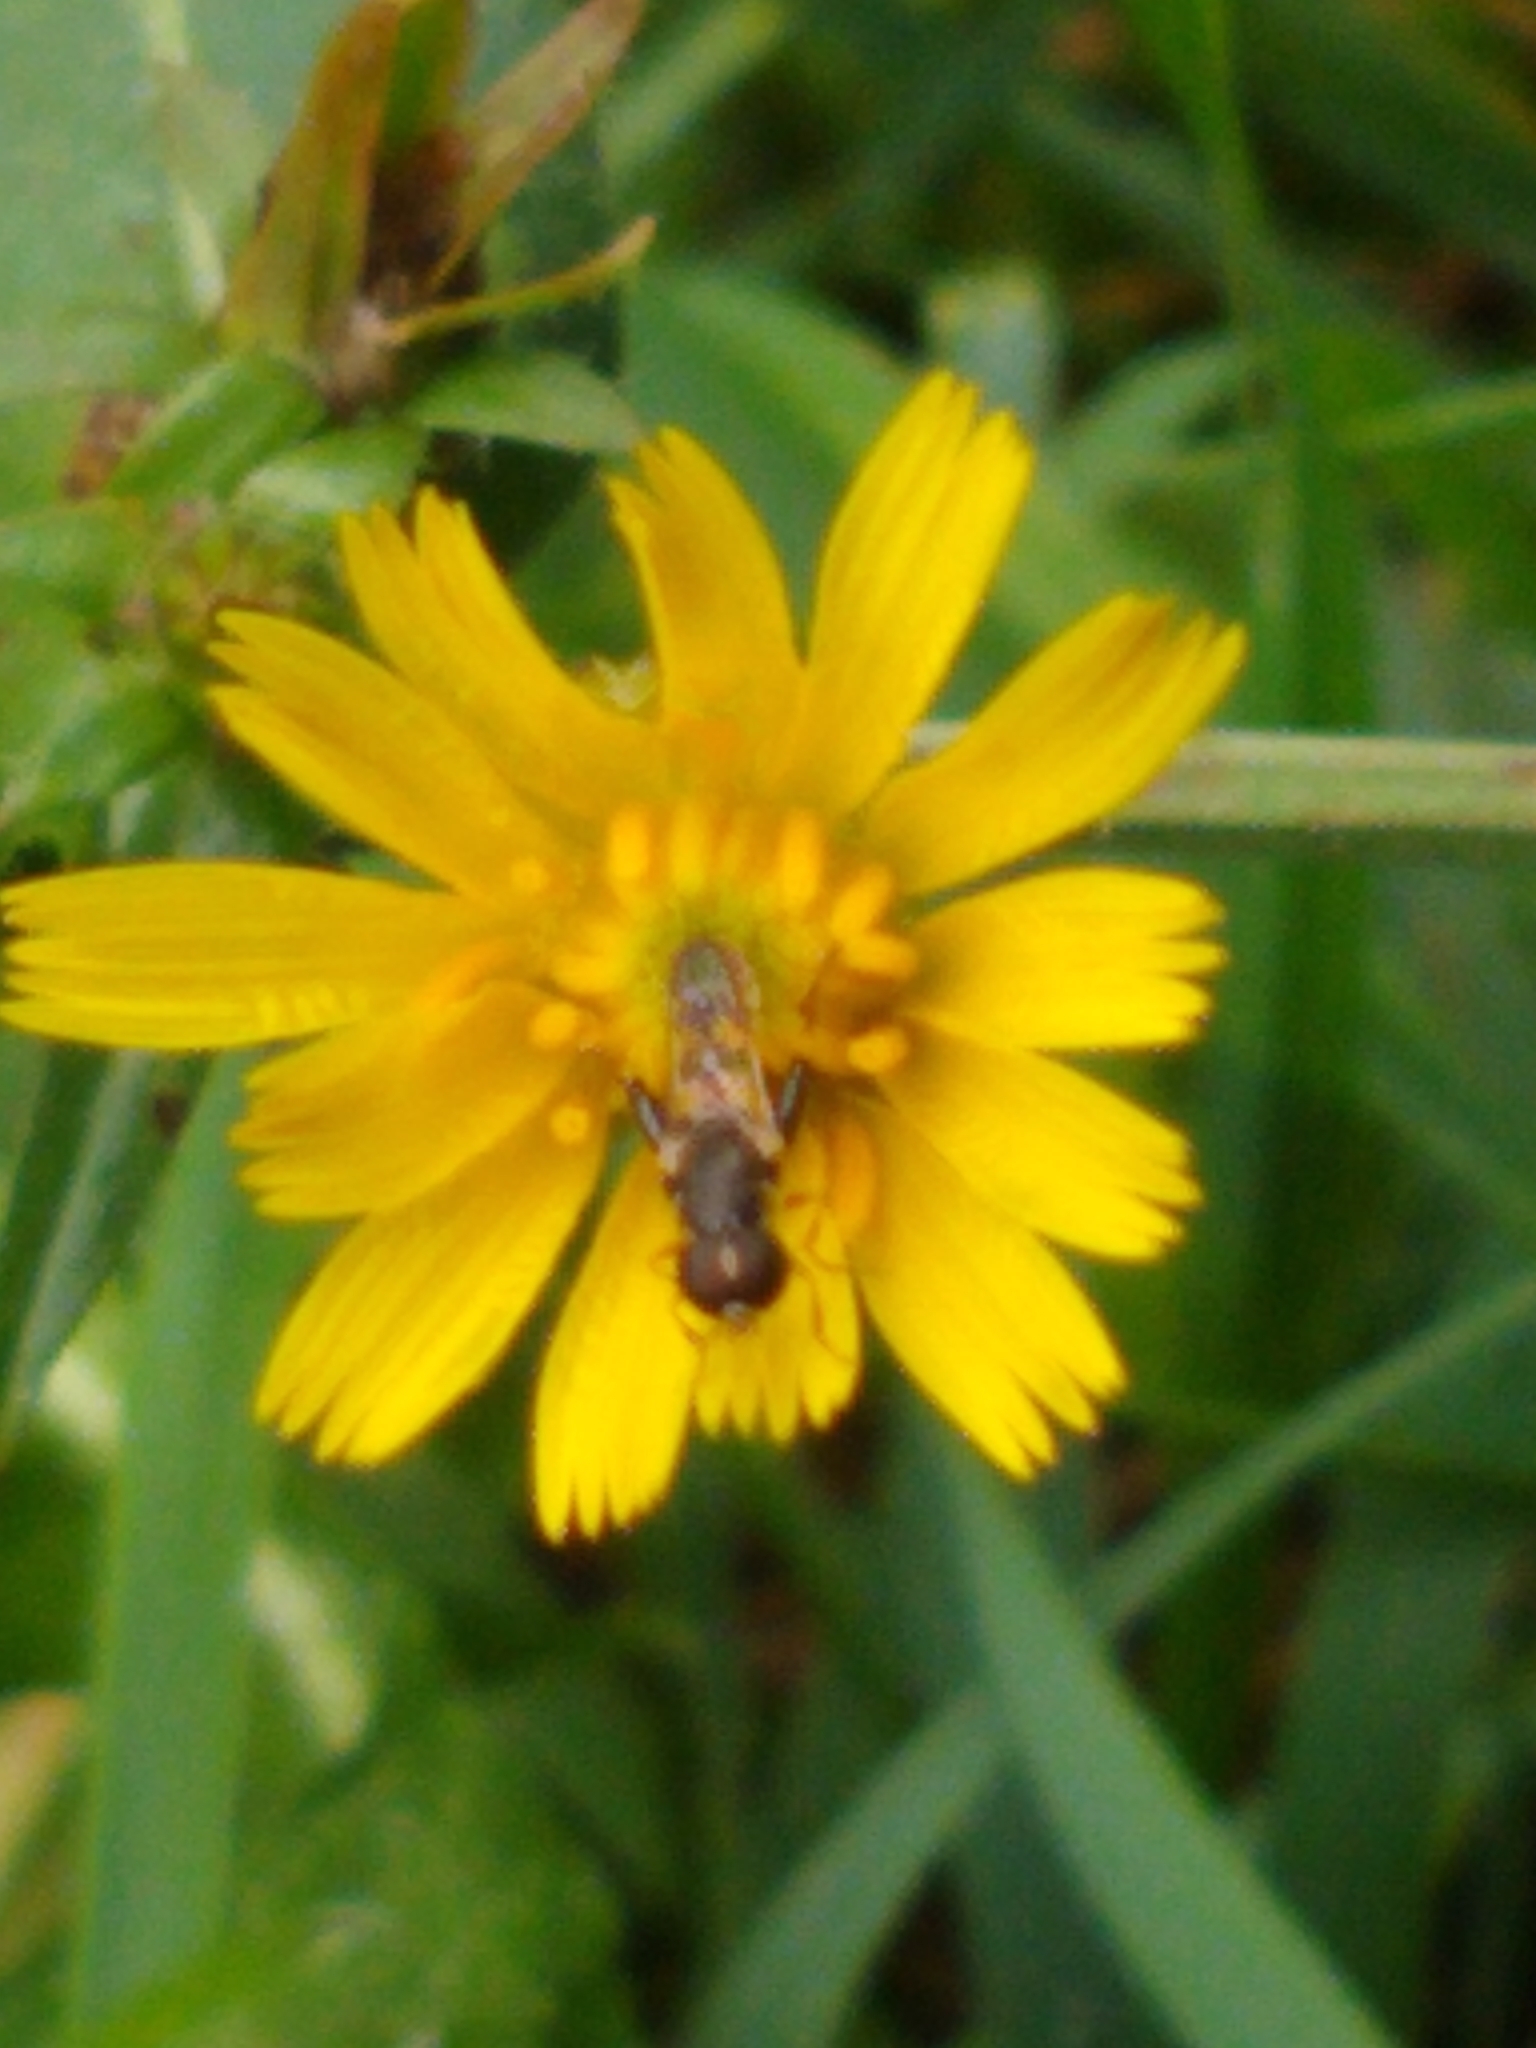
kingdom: Animalia
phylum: Arthropoda
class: Insecta
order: Diptera
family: Syrphidae
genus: Syritta
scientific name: Syritta pipiens
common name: Hover fly
